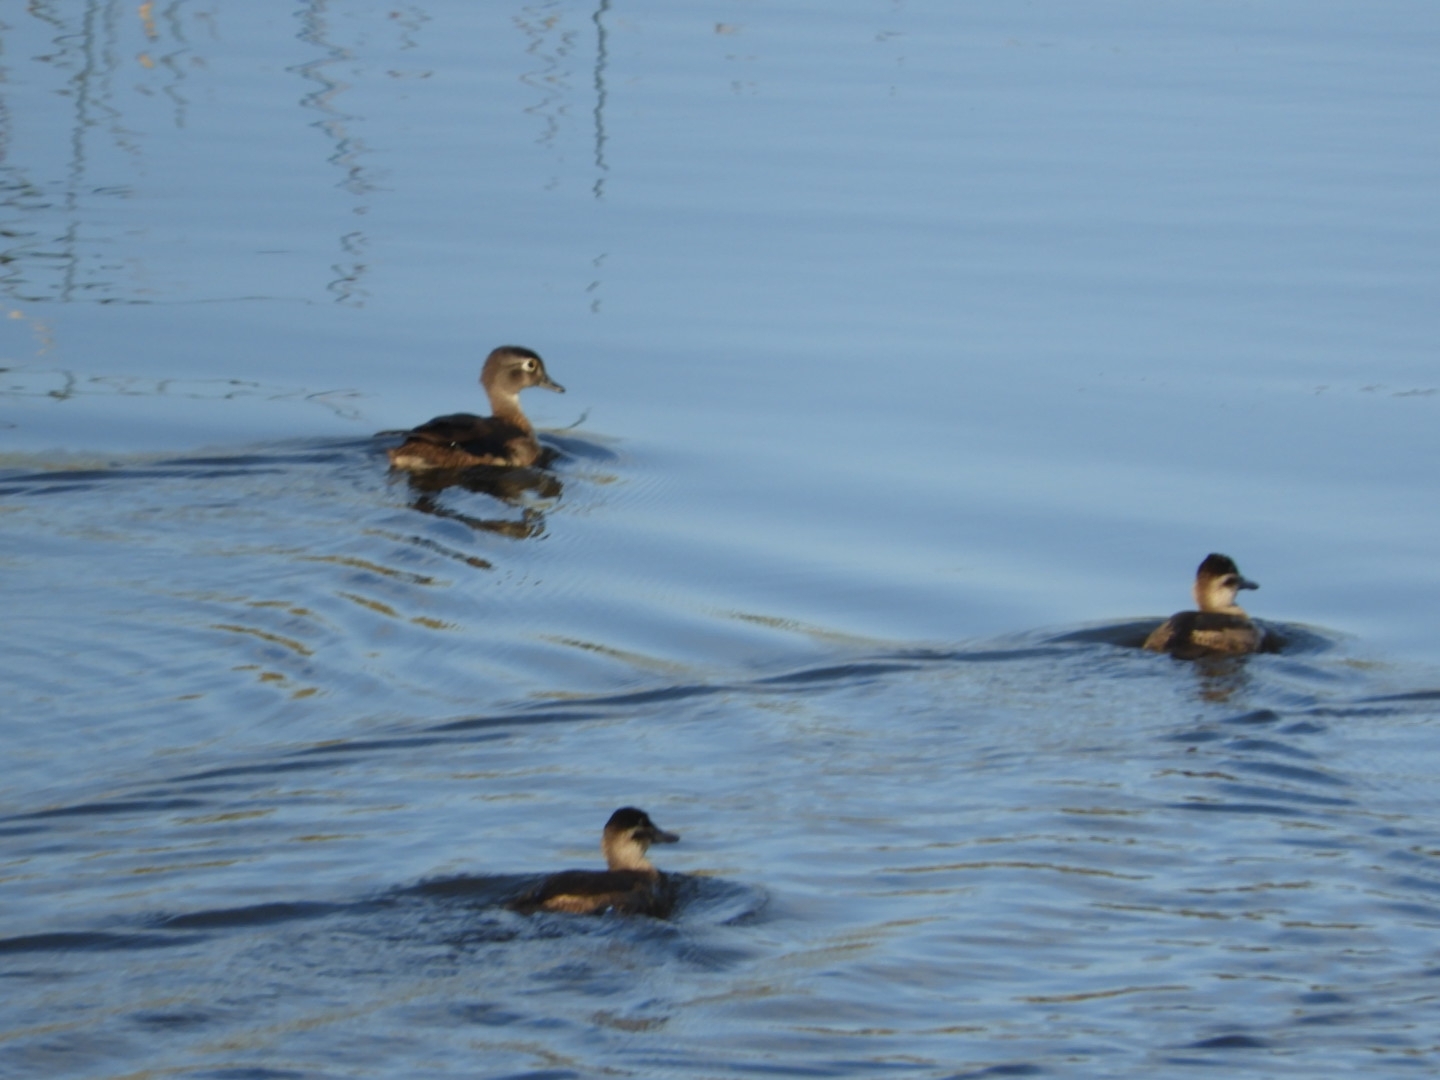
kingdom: Animalia
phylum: Chordata
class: Aves
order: Anseriformes
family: Anatidae
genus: Oxyura
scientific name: Oxyura jamaicensis
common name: Ruddy duck
